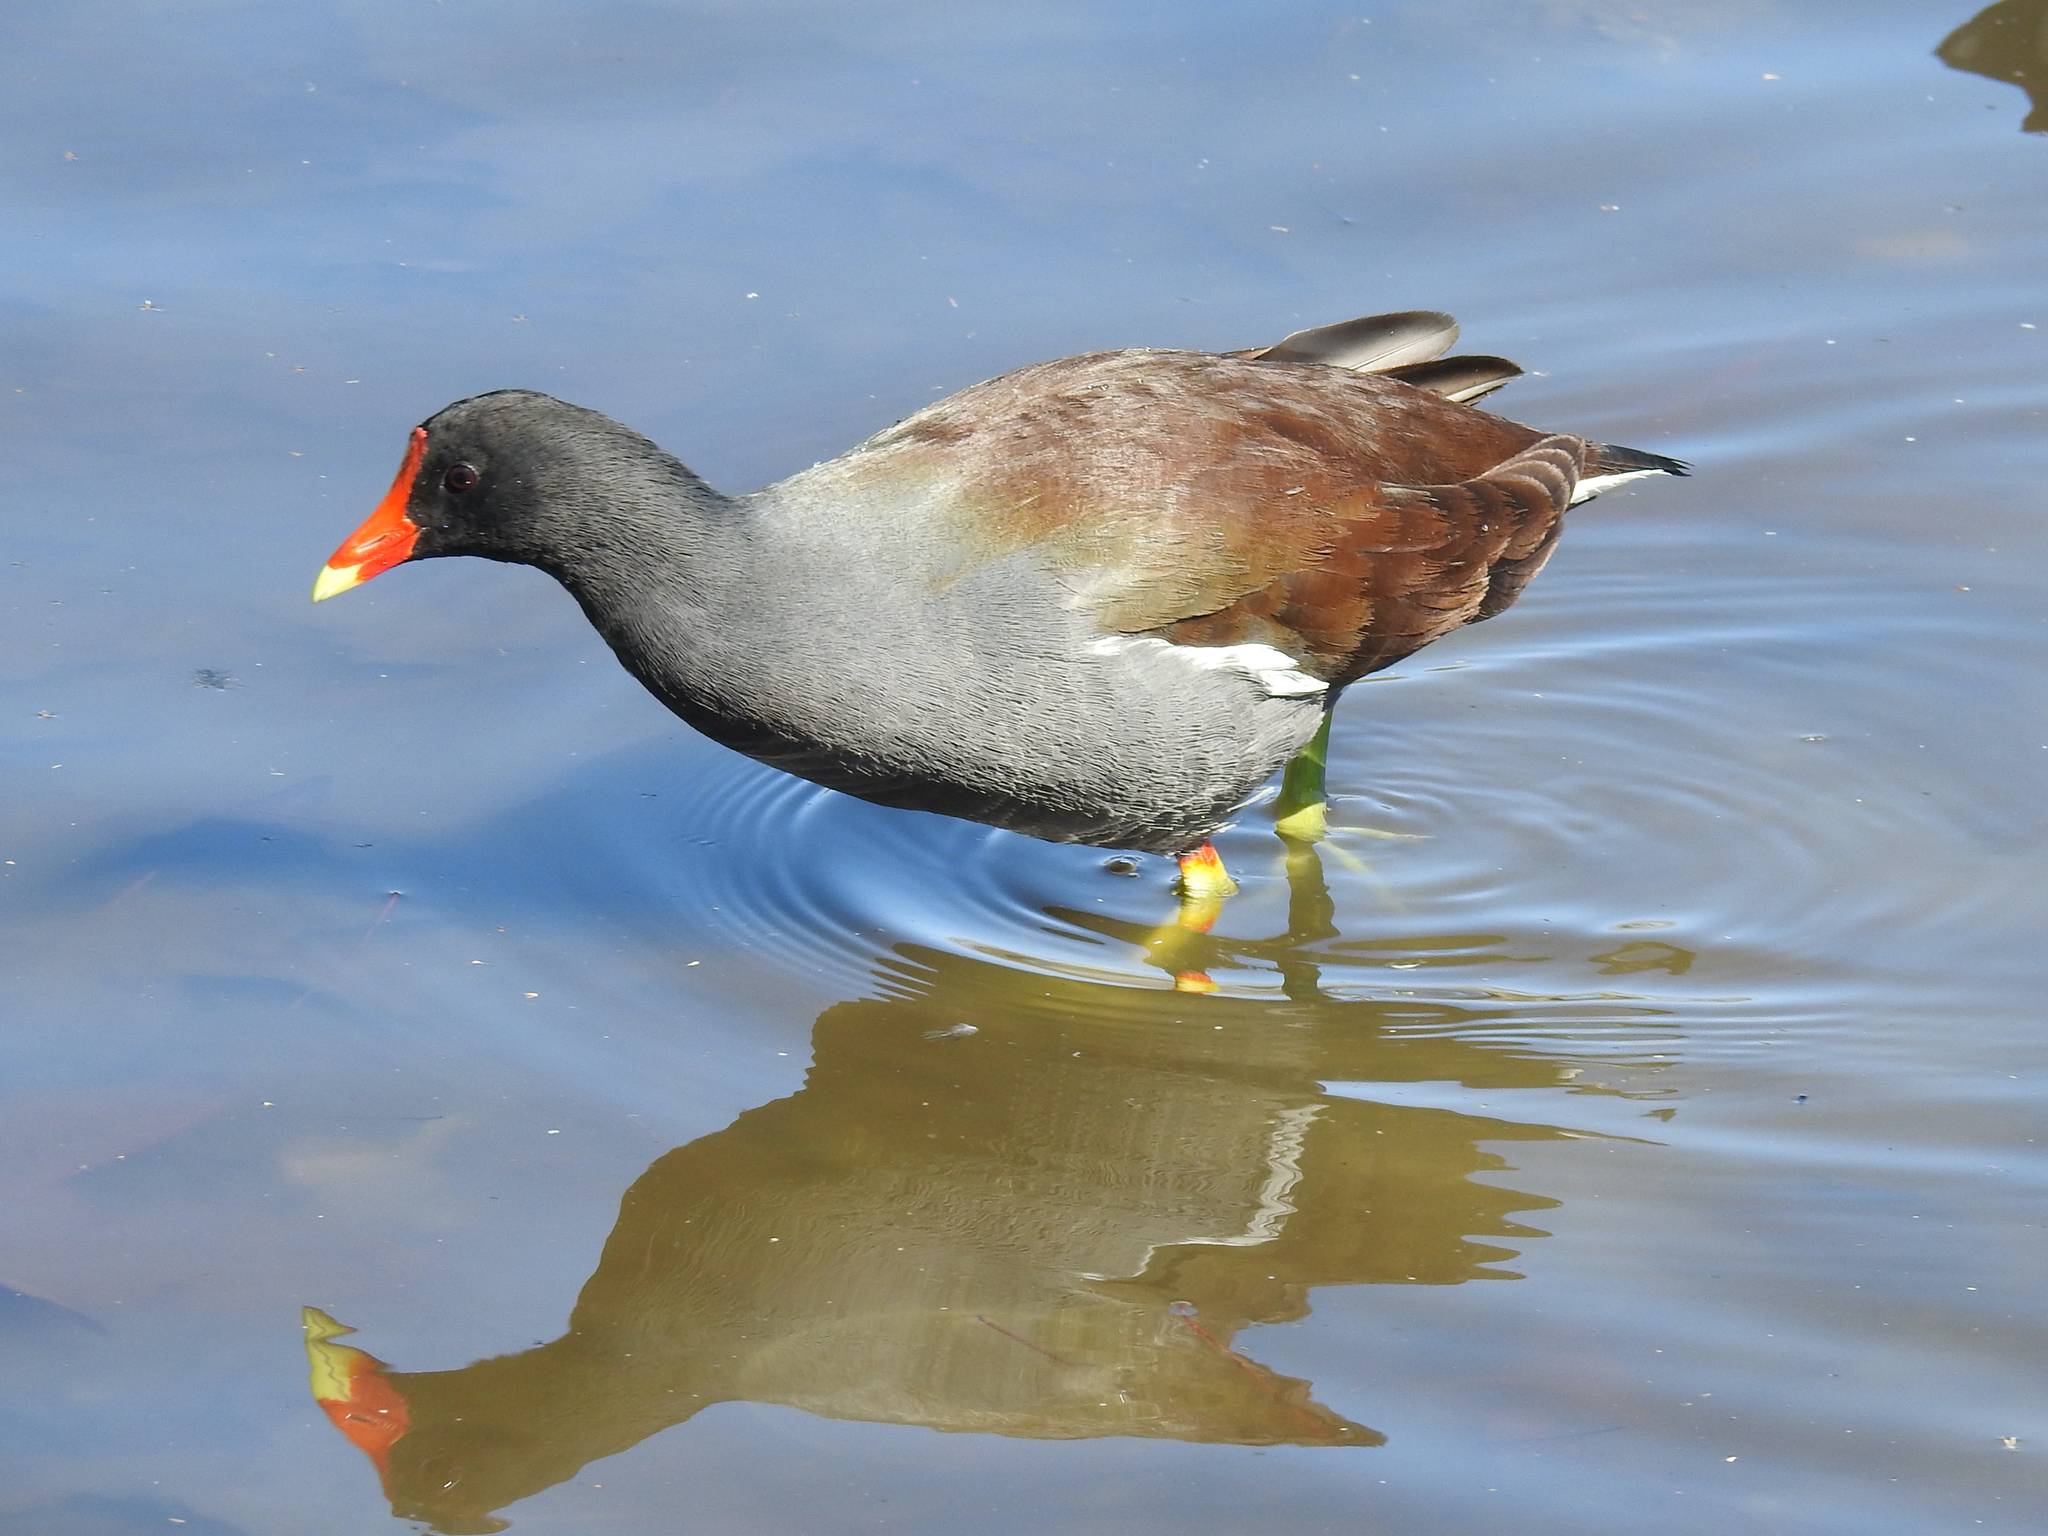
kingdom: Animalia
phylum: Chordata
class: Aves
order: Gruiformes
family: Rallidae
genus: Gallinula
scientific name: Gallinula chloropus
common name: Common moorhen
